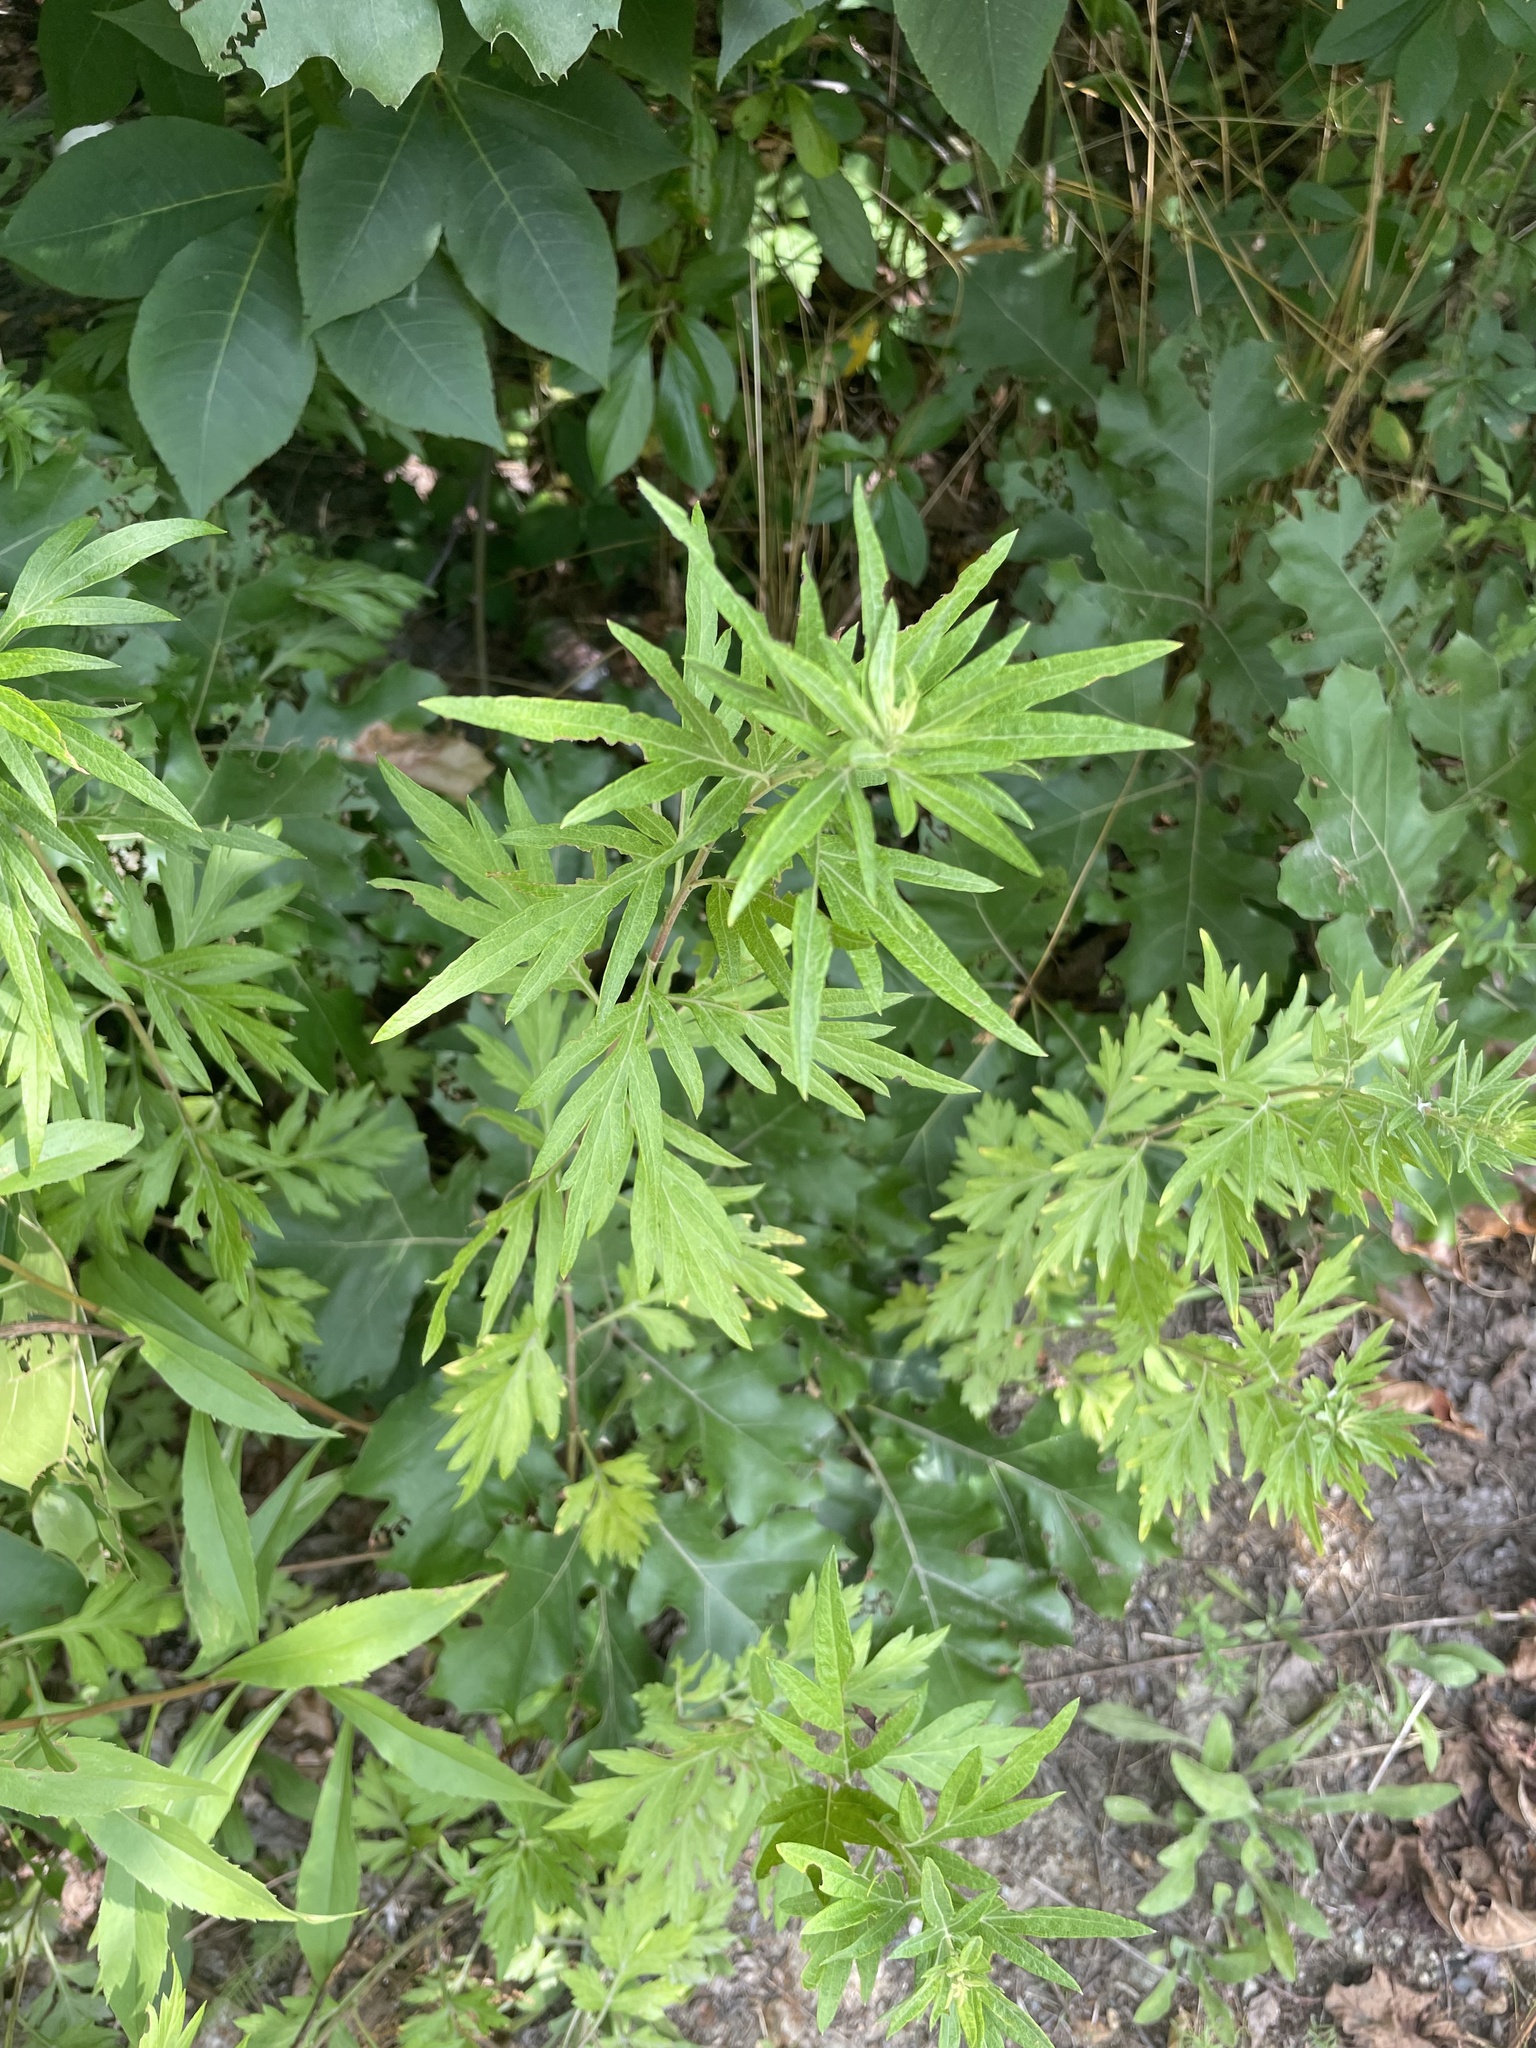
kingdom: Plantae
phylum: Tracheophyta
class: Magnoliopsida
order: Asterales
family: Asteraceae
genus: Artemisia
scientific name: Artemisia vulgaris
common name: Mugwort
